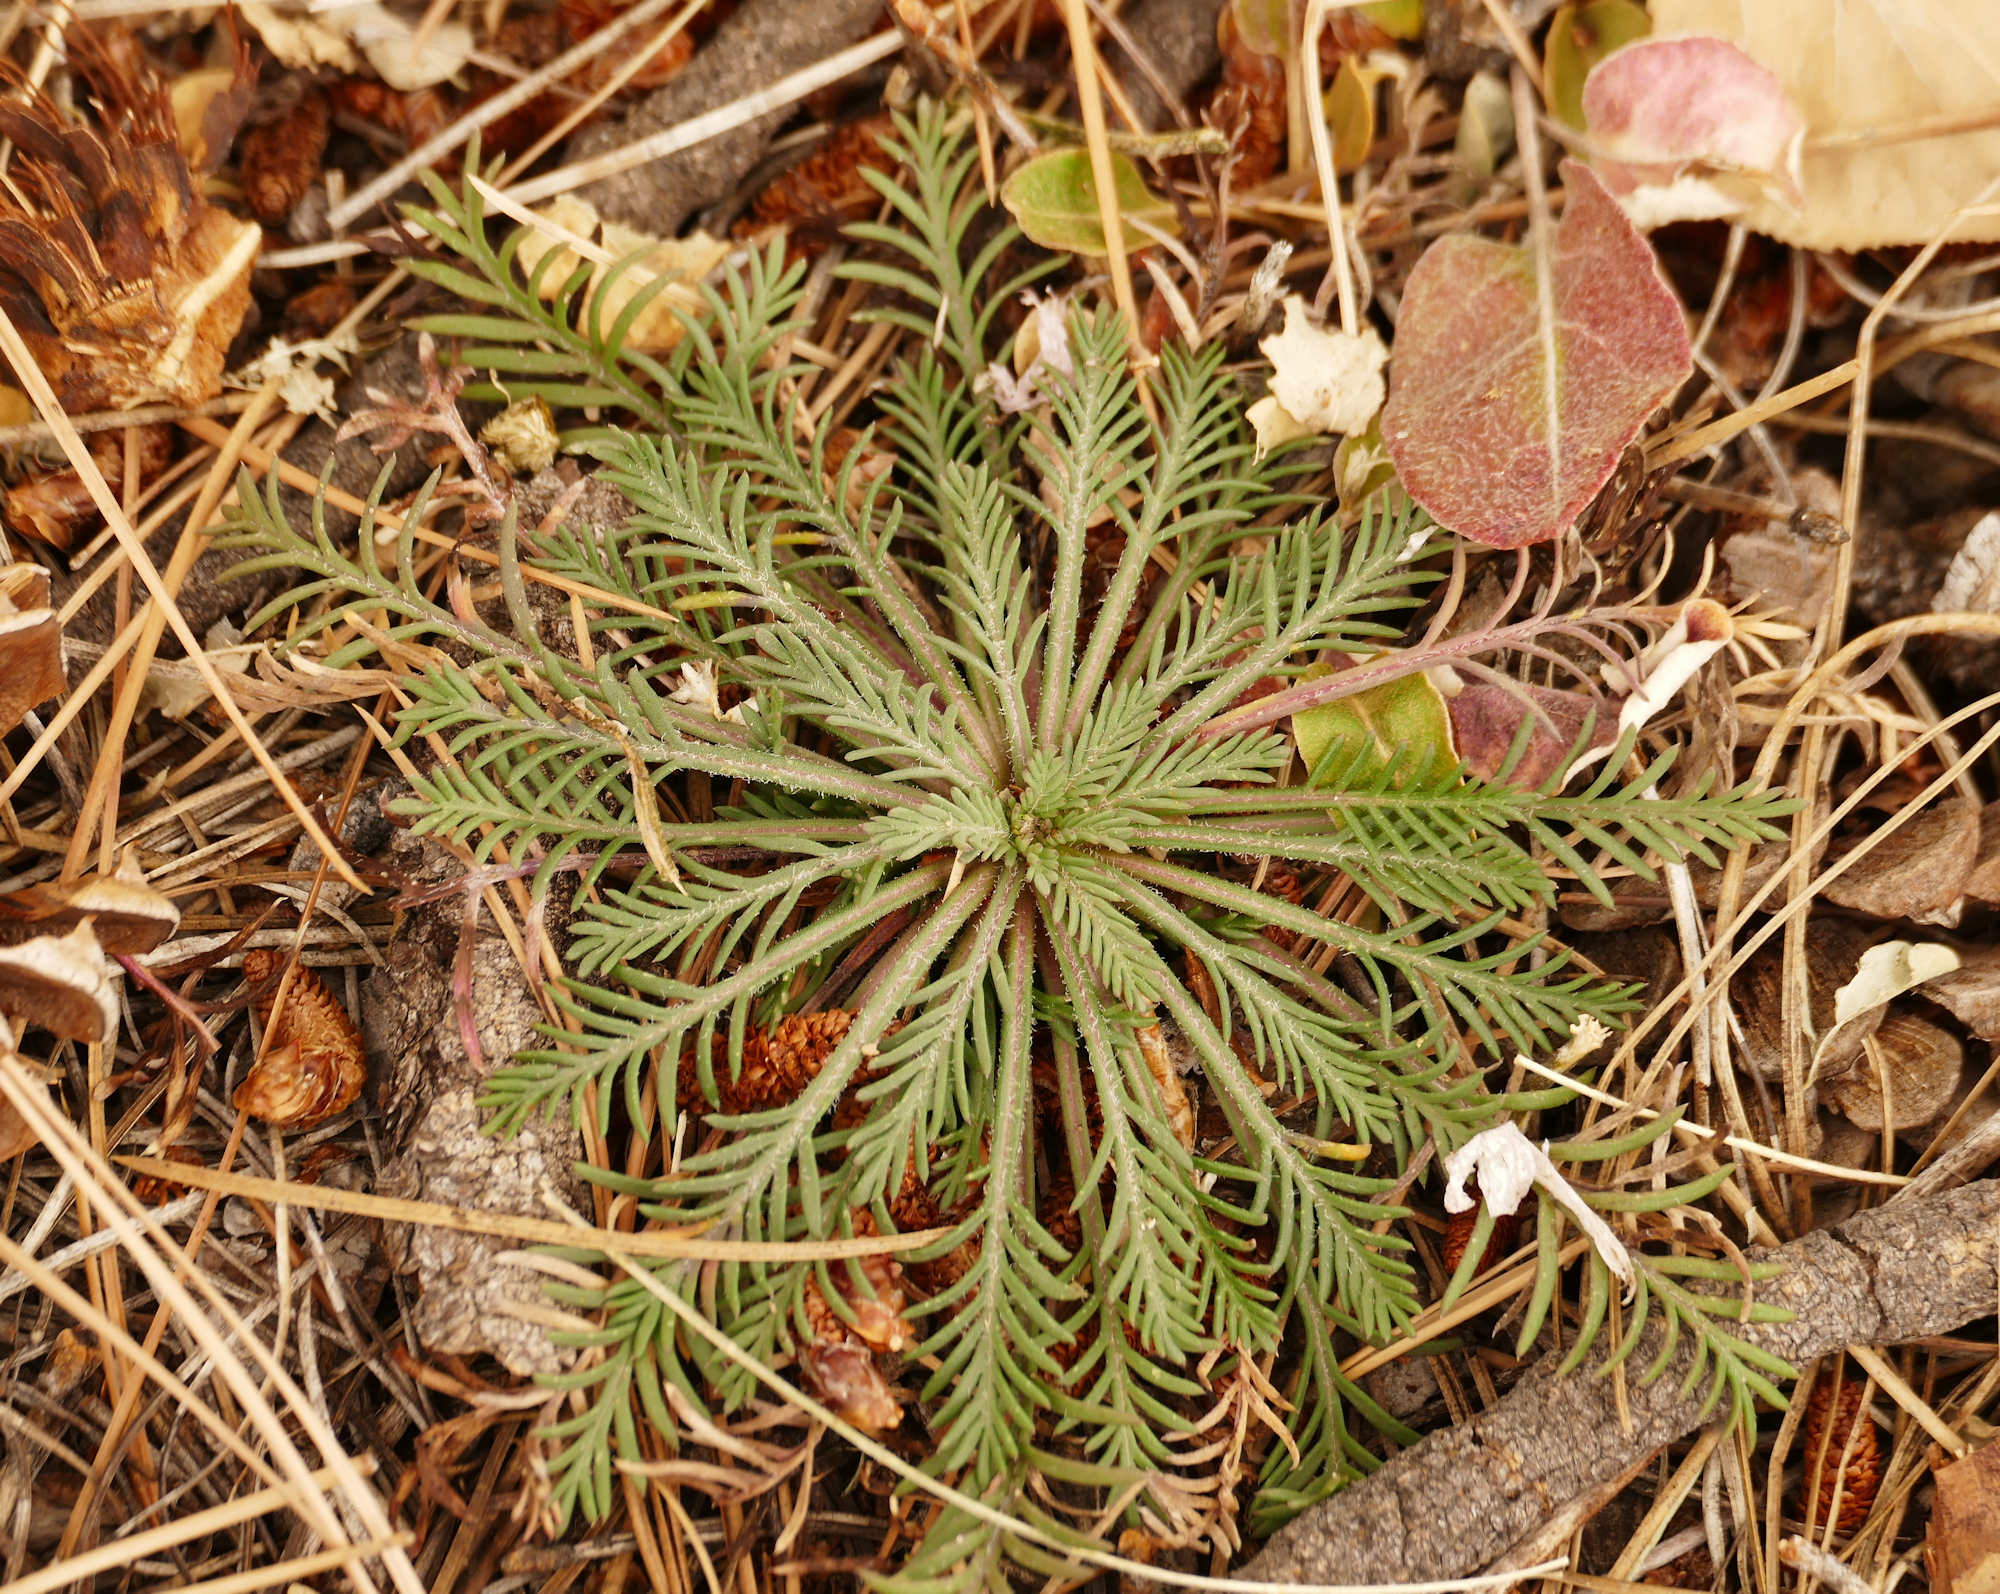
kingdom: Plantae
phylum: Tracheophyta
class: Magnoliopsida
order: Ericales
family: Polemoniaceae
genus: Ipomopsis
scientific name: Ipomopsis tenuituba
